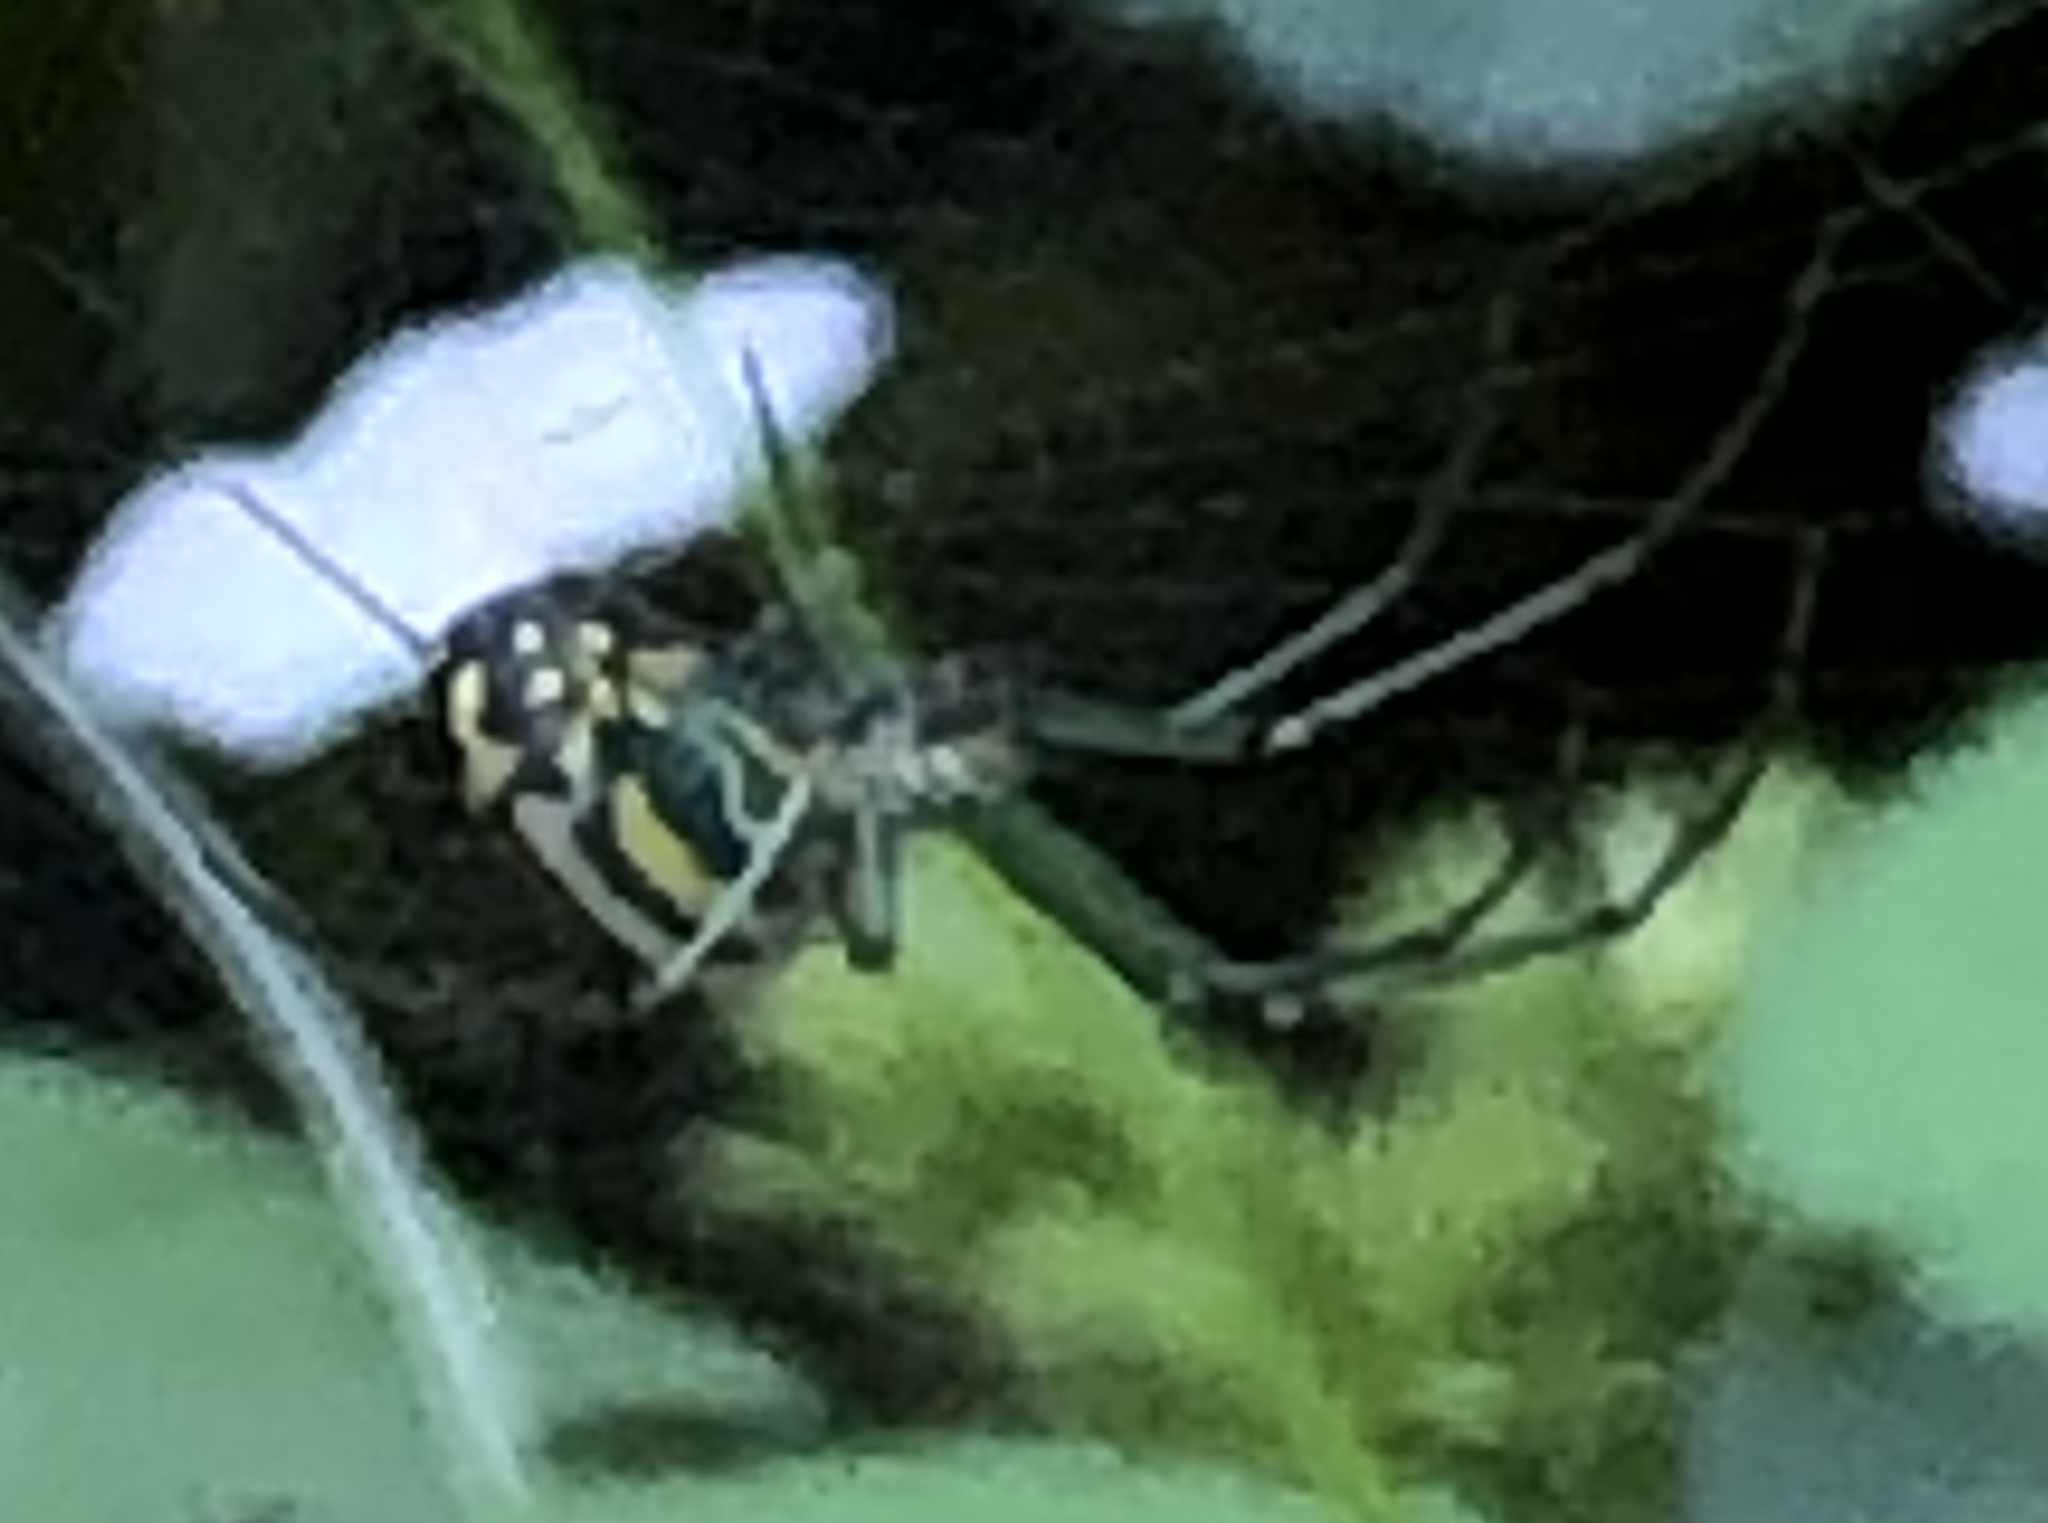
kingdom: Animalia
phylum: Arthropoda
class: Arachnida
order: Araneae
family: Tetragnathidae
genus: Leucauge
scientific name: Leucauge venusta
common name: Longjawed orb weavers
